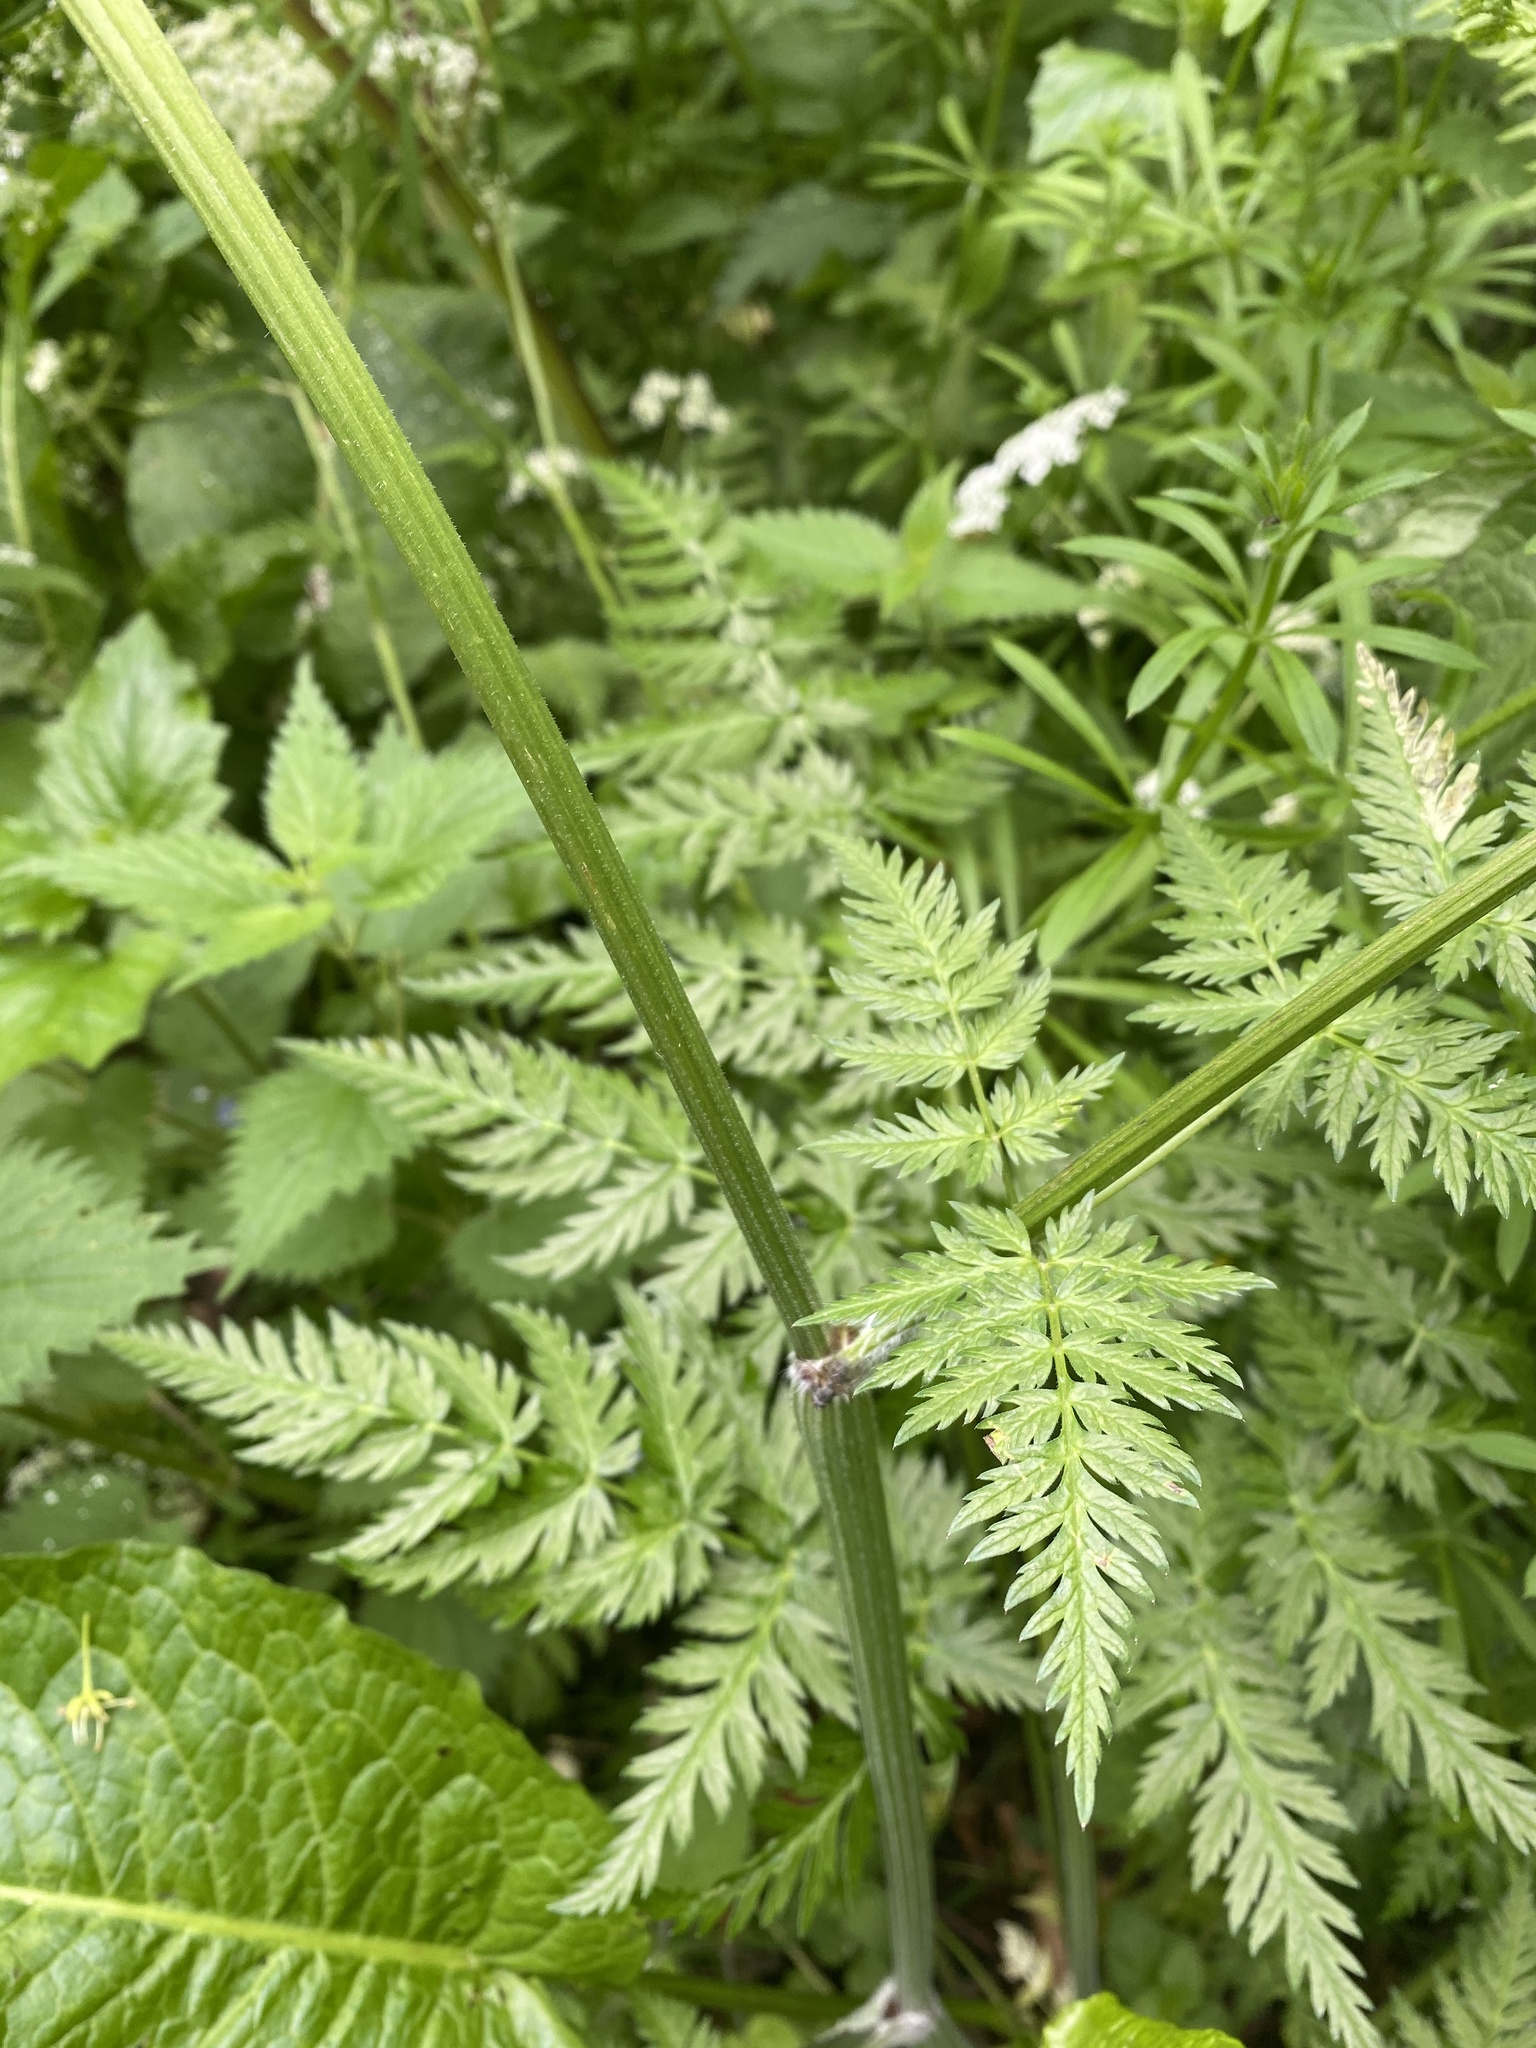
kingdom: Plantae
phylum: Tracheophyta
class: Magnoliopsida
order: Apiales
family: Apiaceae
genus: Anthriscus
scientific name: Anthriscus sylvestris
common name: Cow parsley
